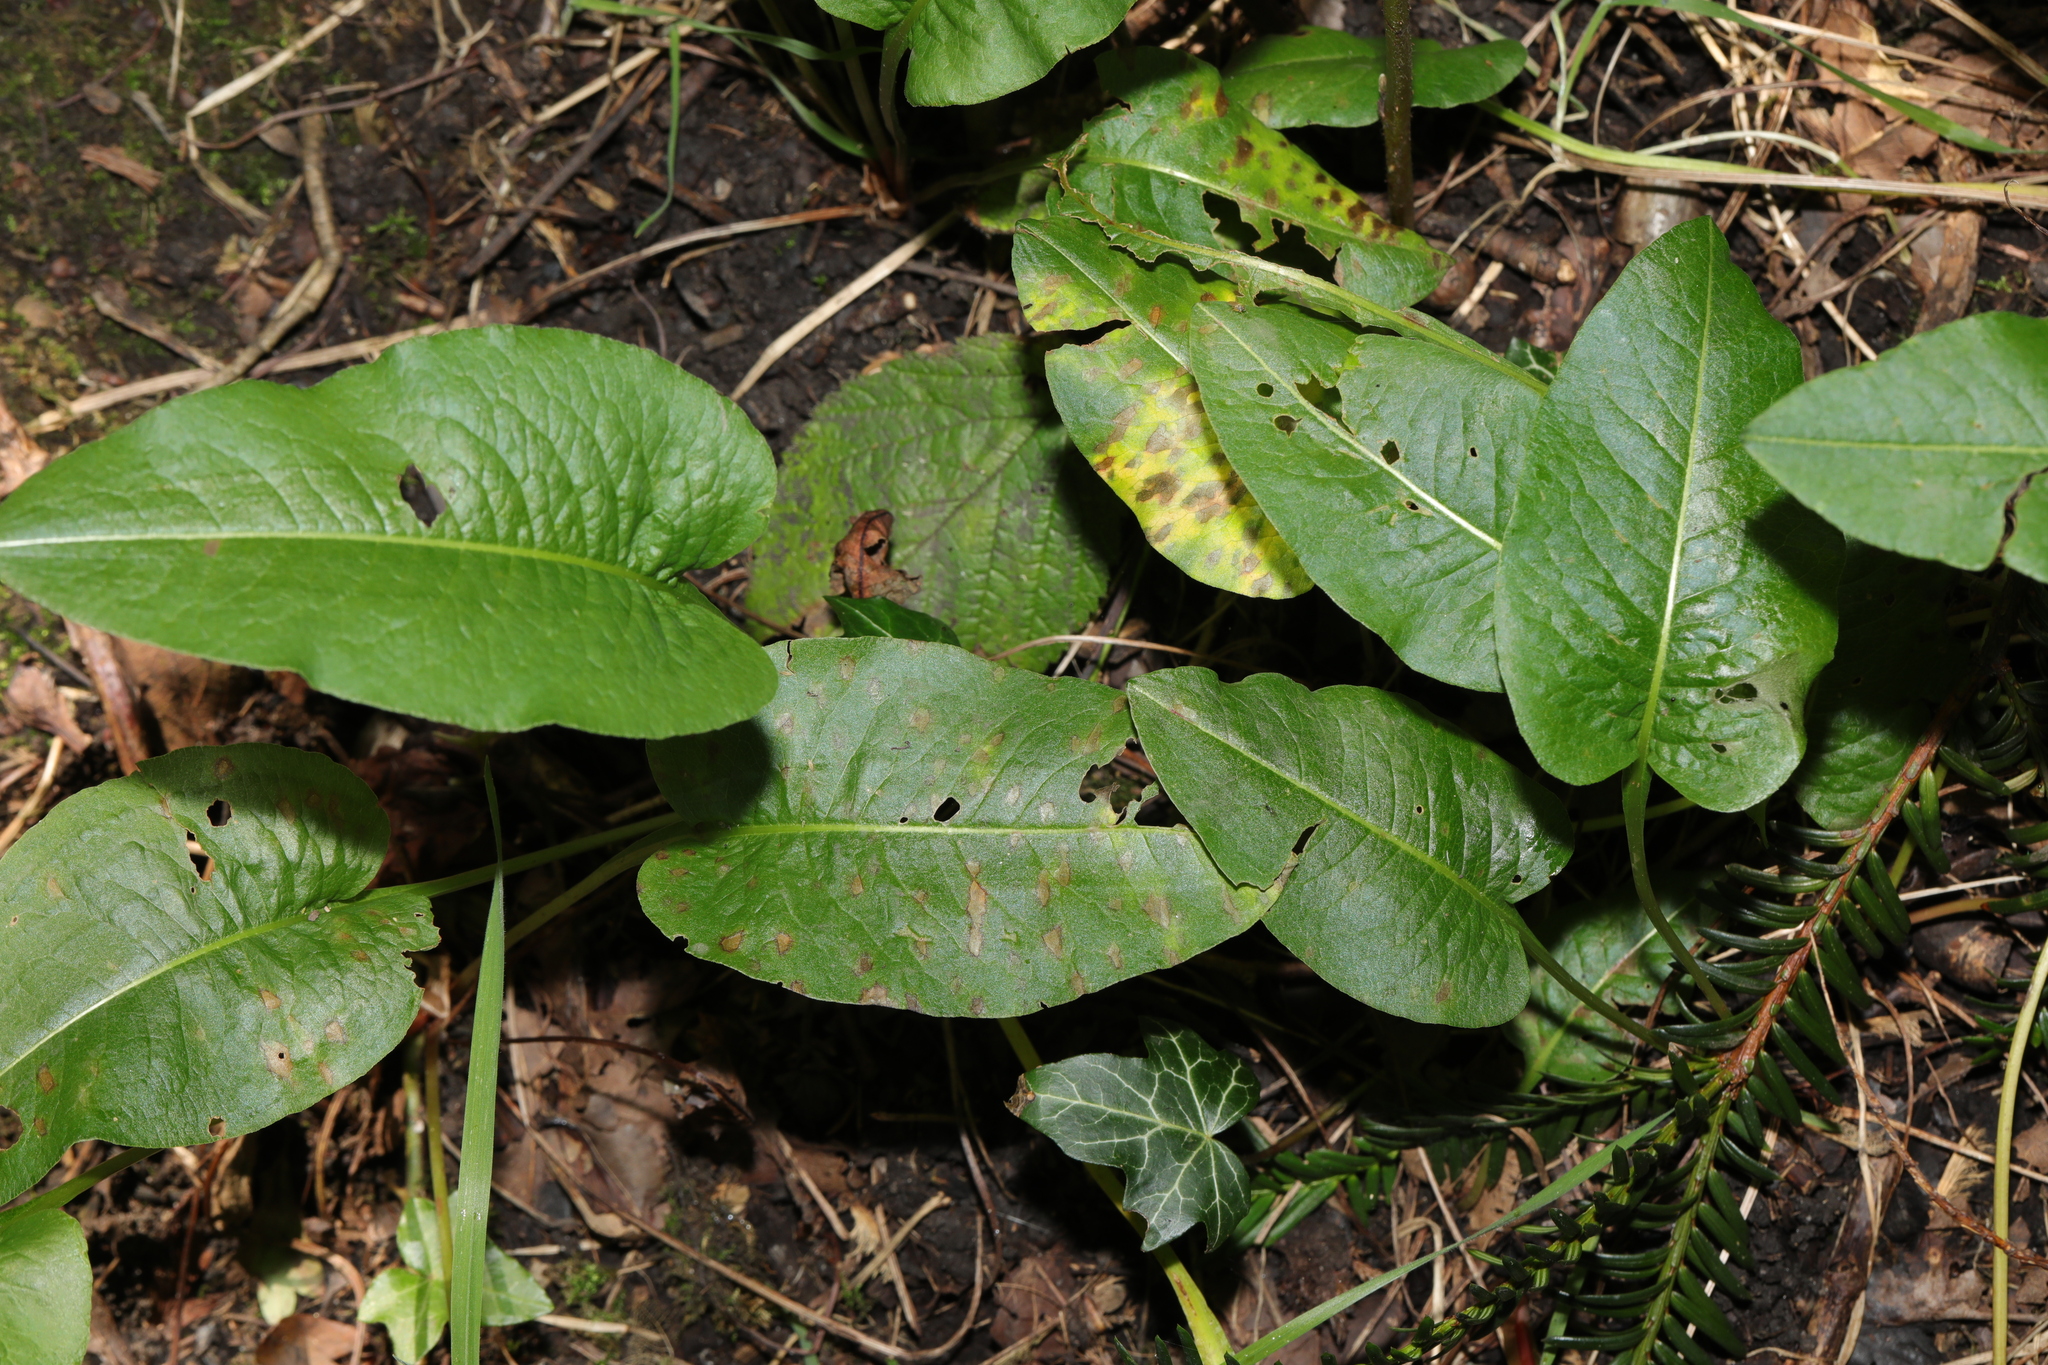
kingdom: Plantae
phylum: Tracheophyta
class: Magnoliopsida
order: Caryophyllales
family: Polygonaceae
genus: Bistorta
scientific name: Bistorta officinalis
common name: Common bistort
